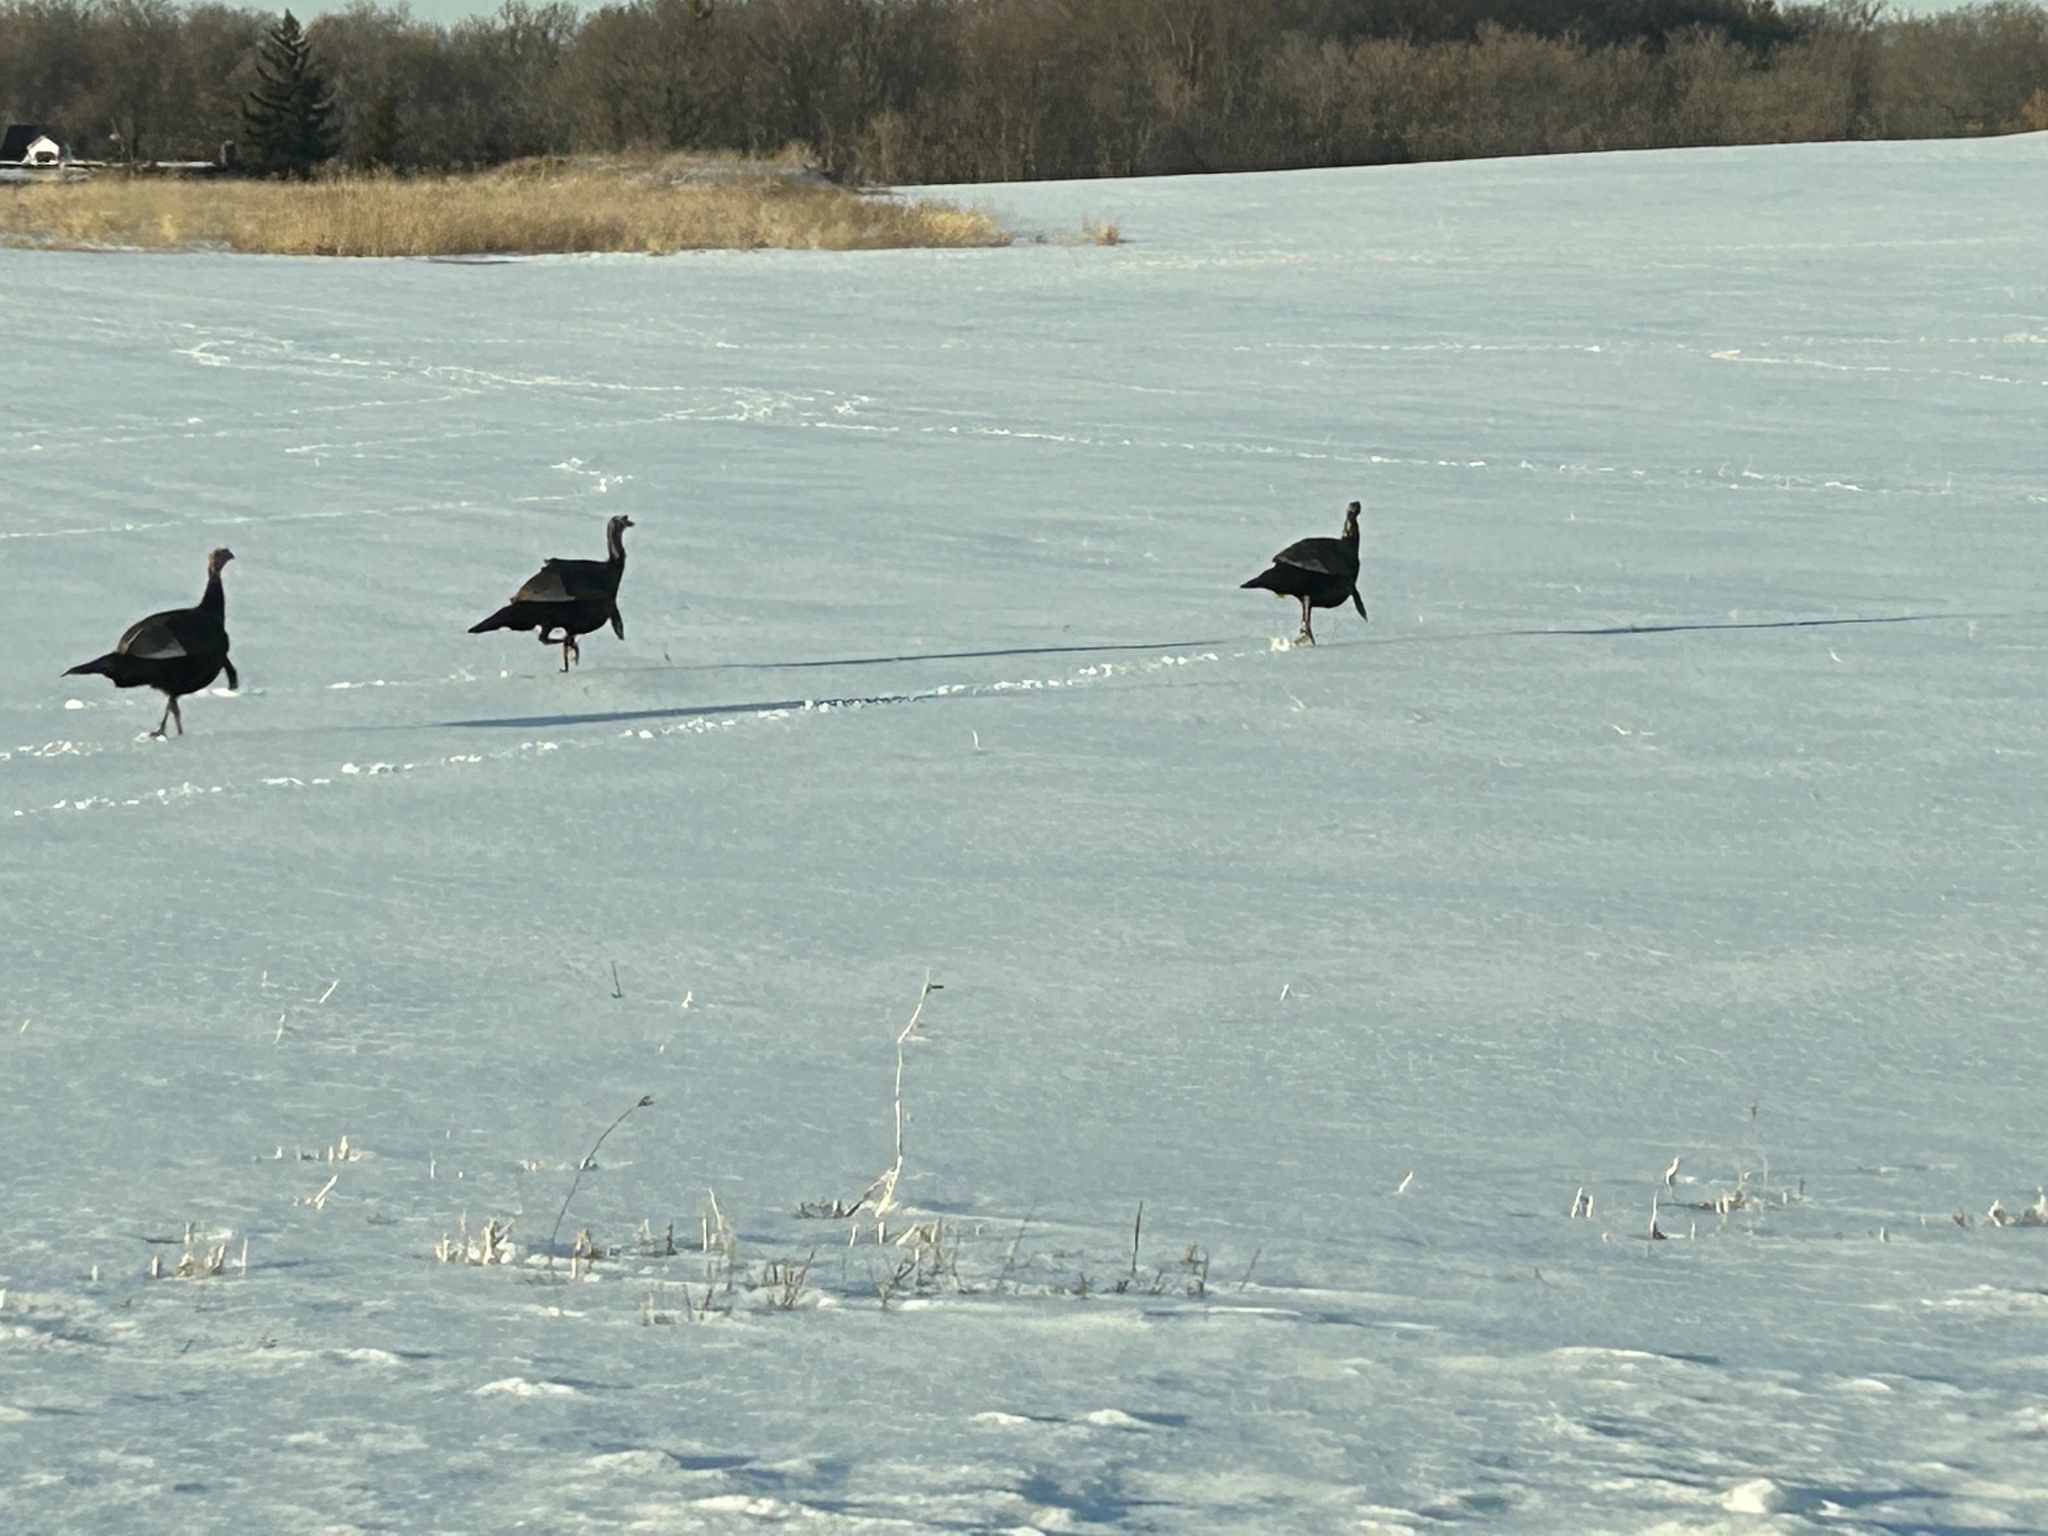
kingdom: Animalia
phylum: Chordata
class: Aves
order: Galliformes
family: Phasianidae
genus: Meleagris
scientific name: Meleagris gallopavo
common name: Wild turkey
